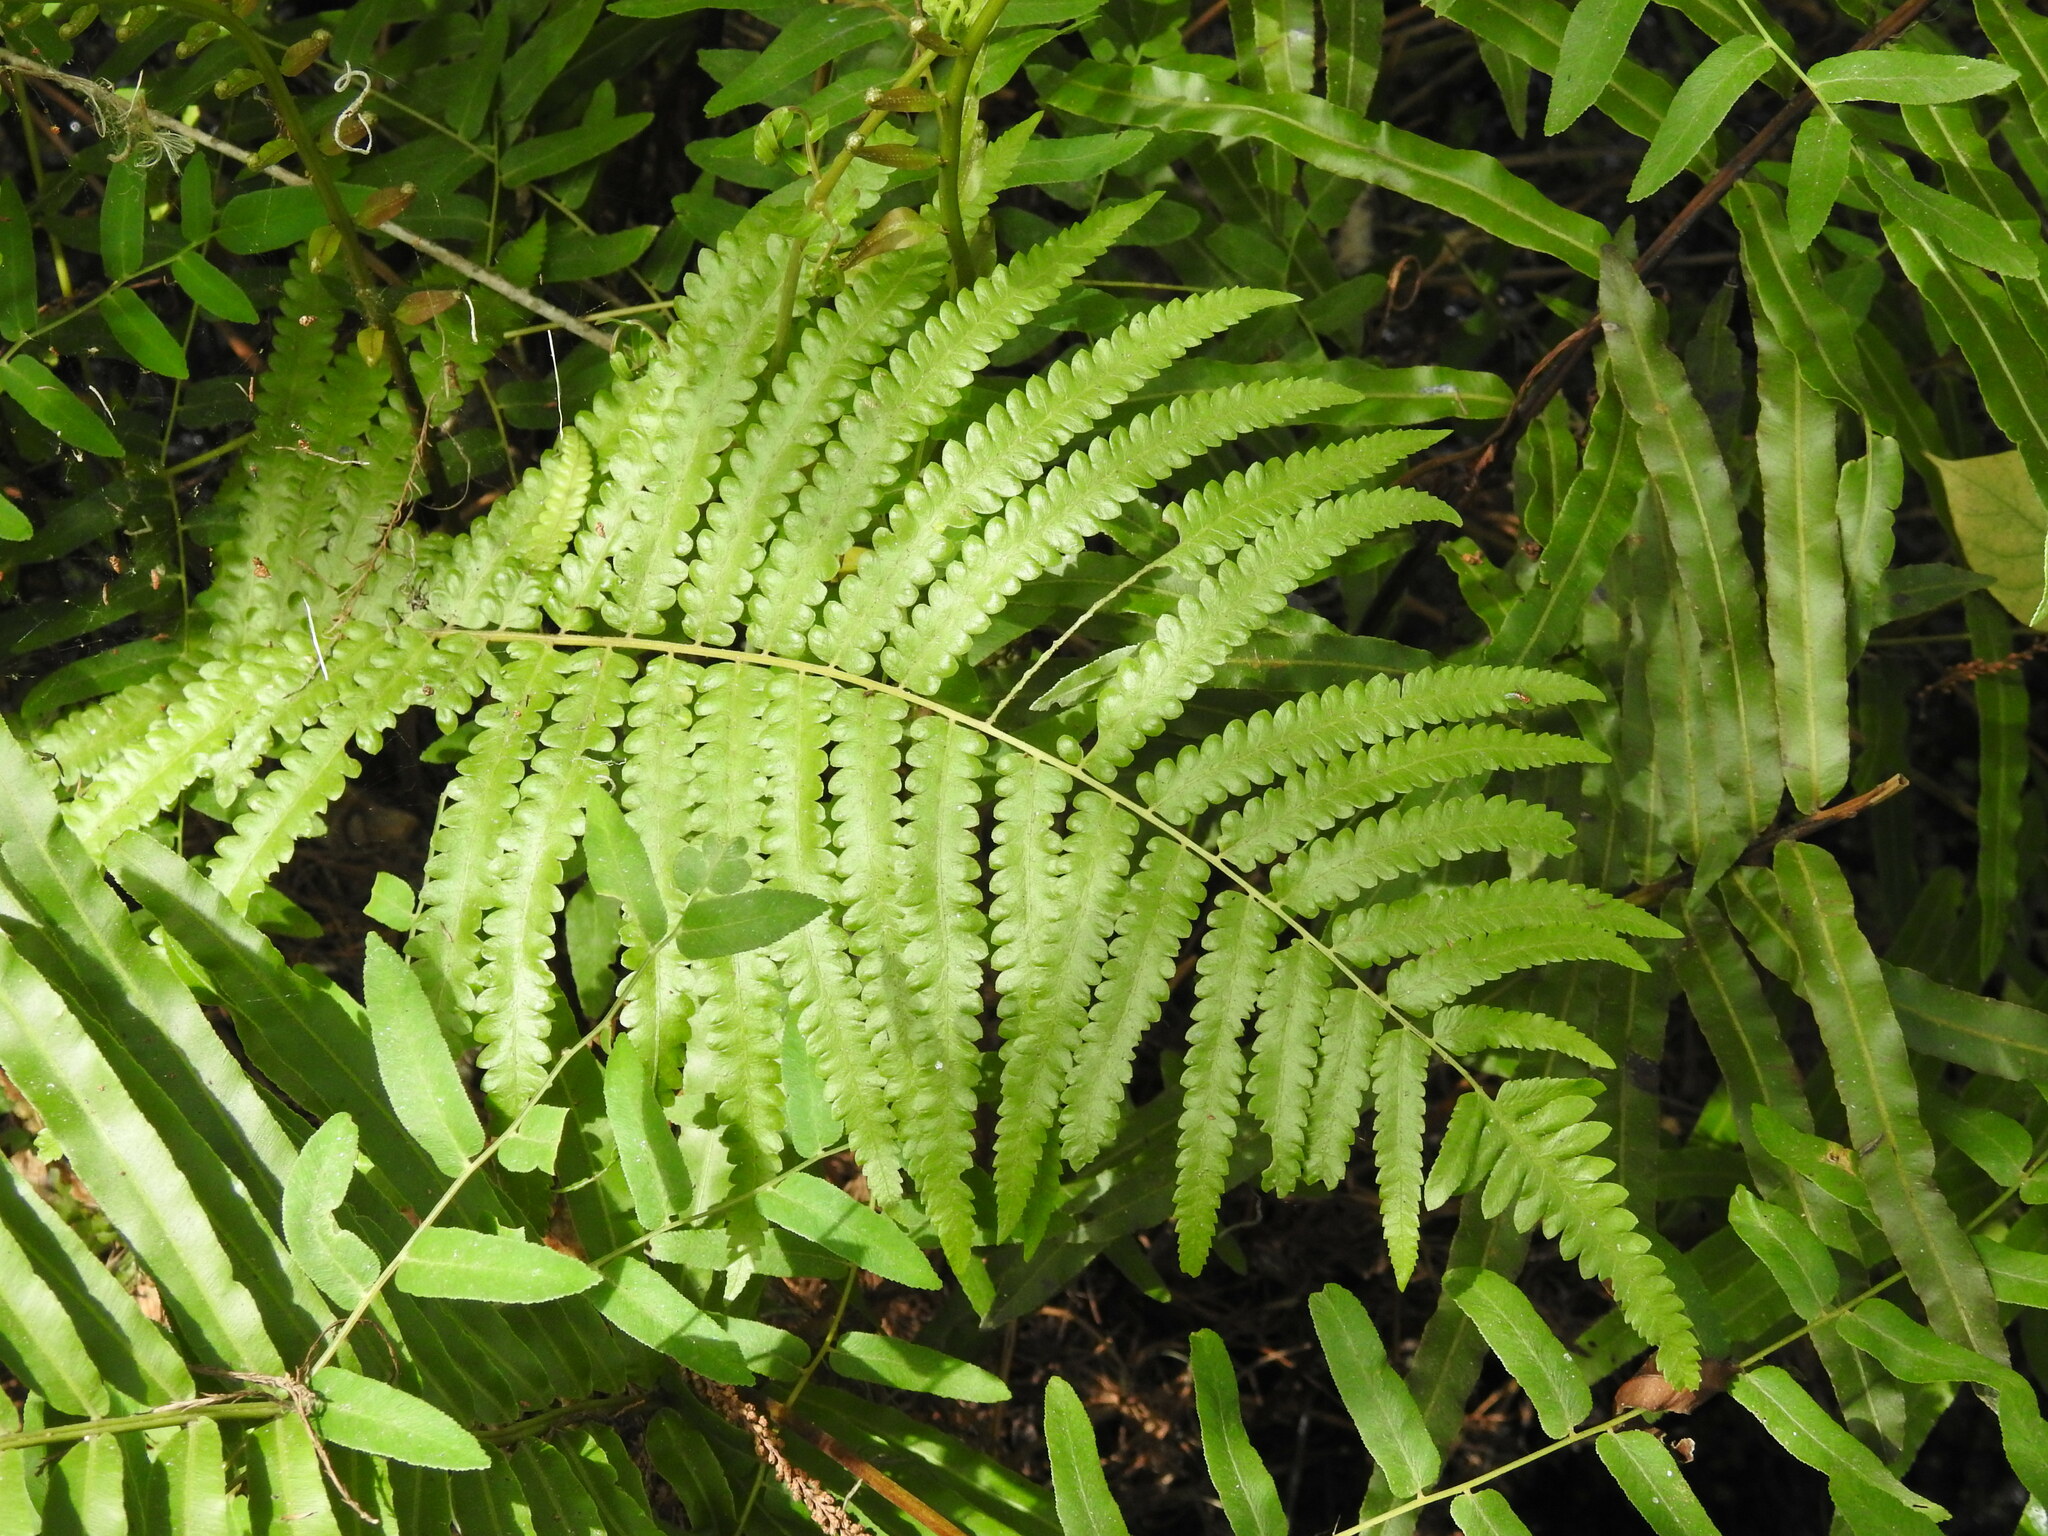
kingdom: Plantae
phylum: Tracheophyta
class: Polypodiopsida
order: Polypodiales
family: Thelypteridaceae
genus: Cyclosorus
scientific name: Cyclosorus interruptus
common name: Neke fern
